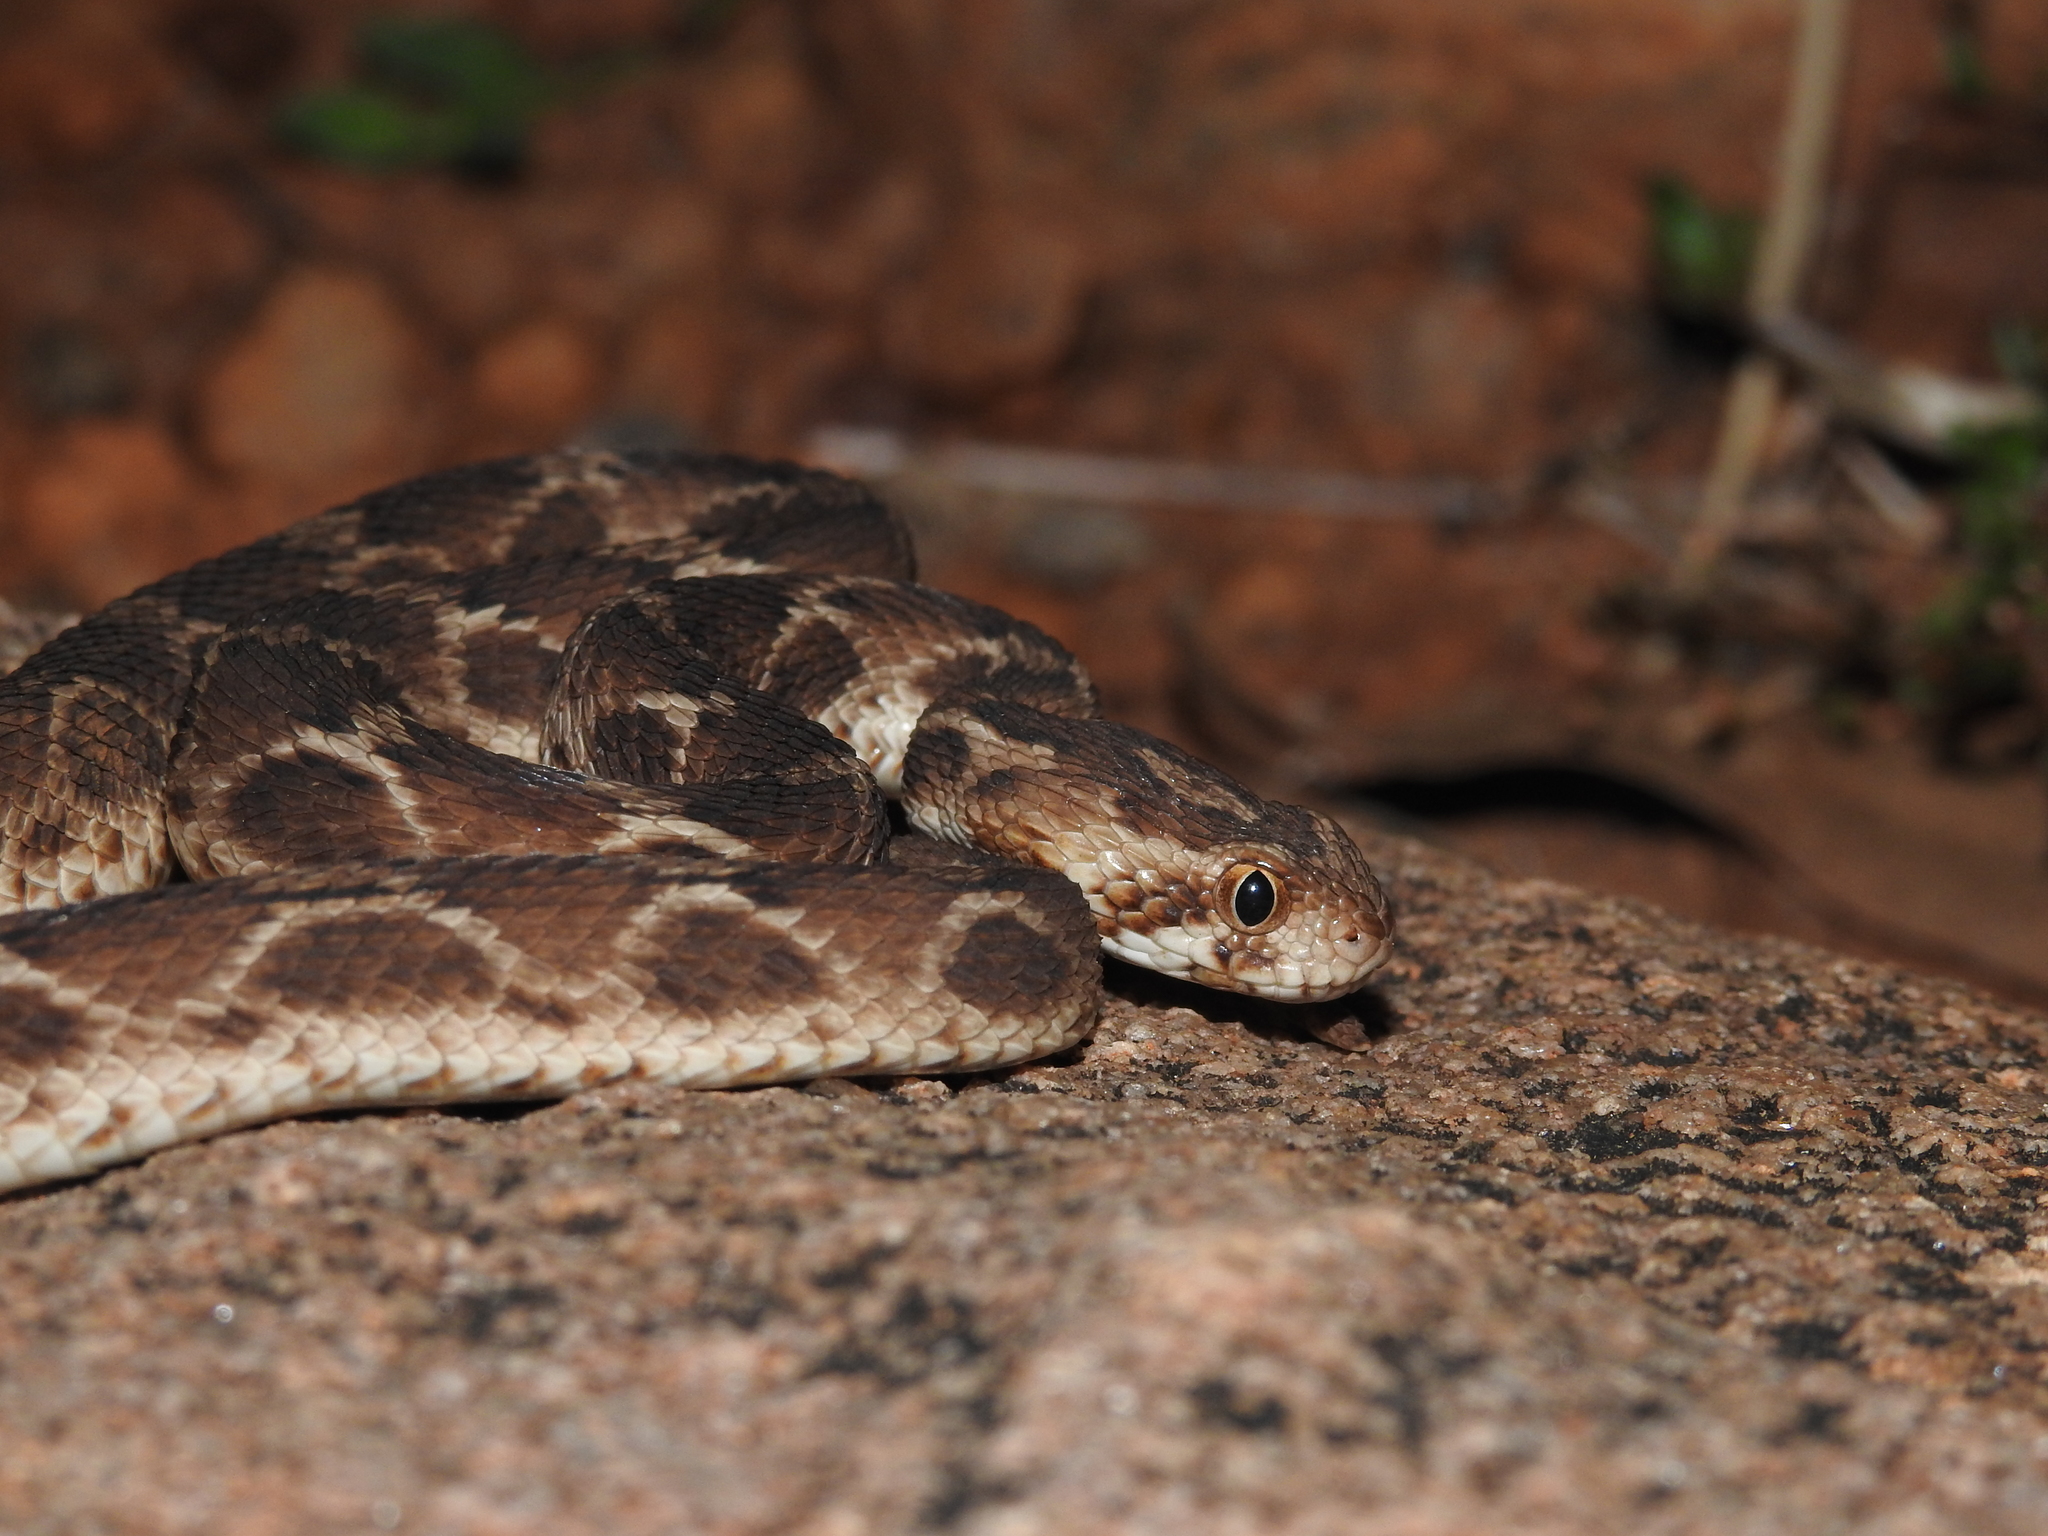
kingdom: Animalia
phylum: Chordata
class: Squamata
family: Viperidae
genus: Echis
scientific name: Echis carinatus
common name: Saw-scaled viper
